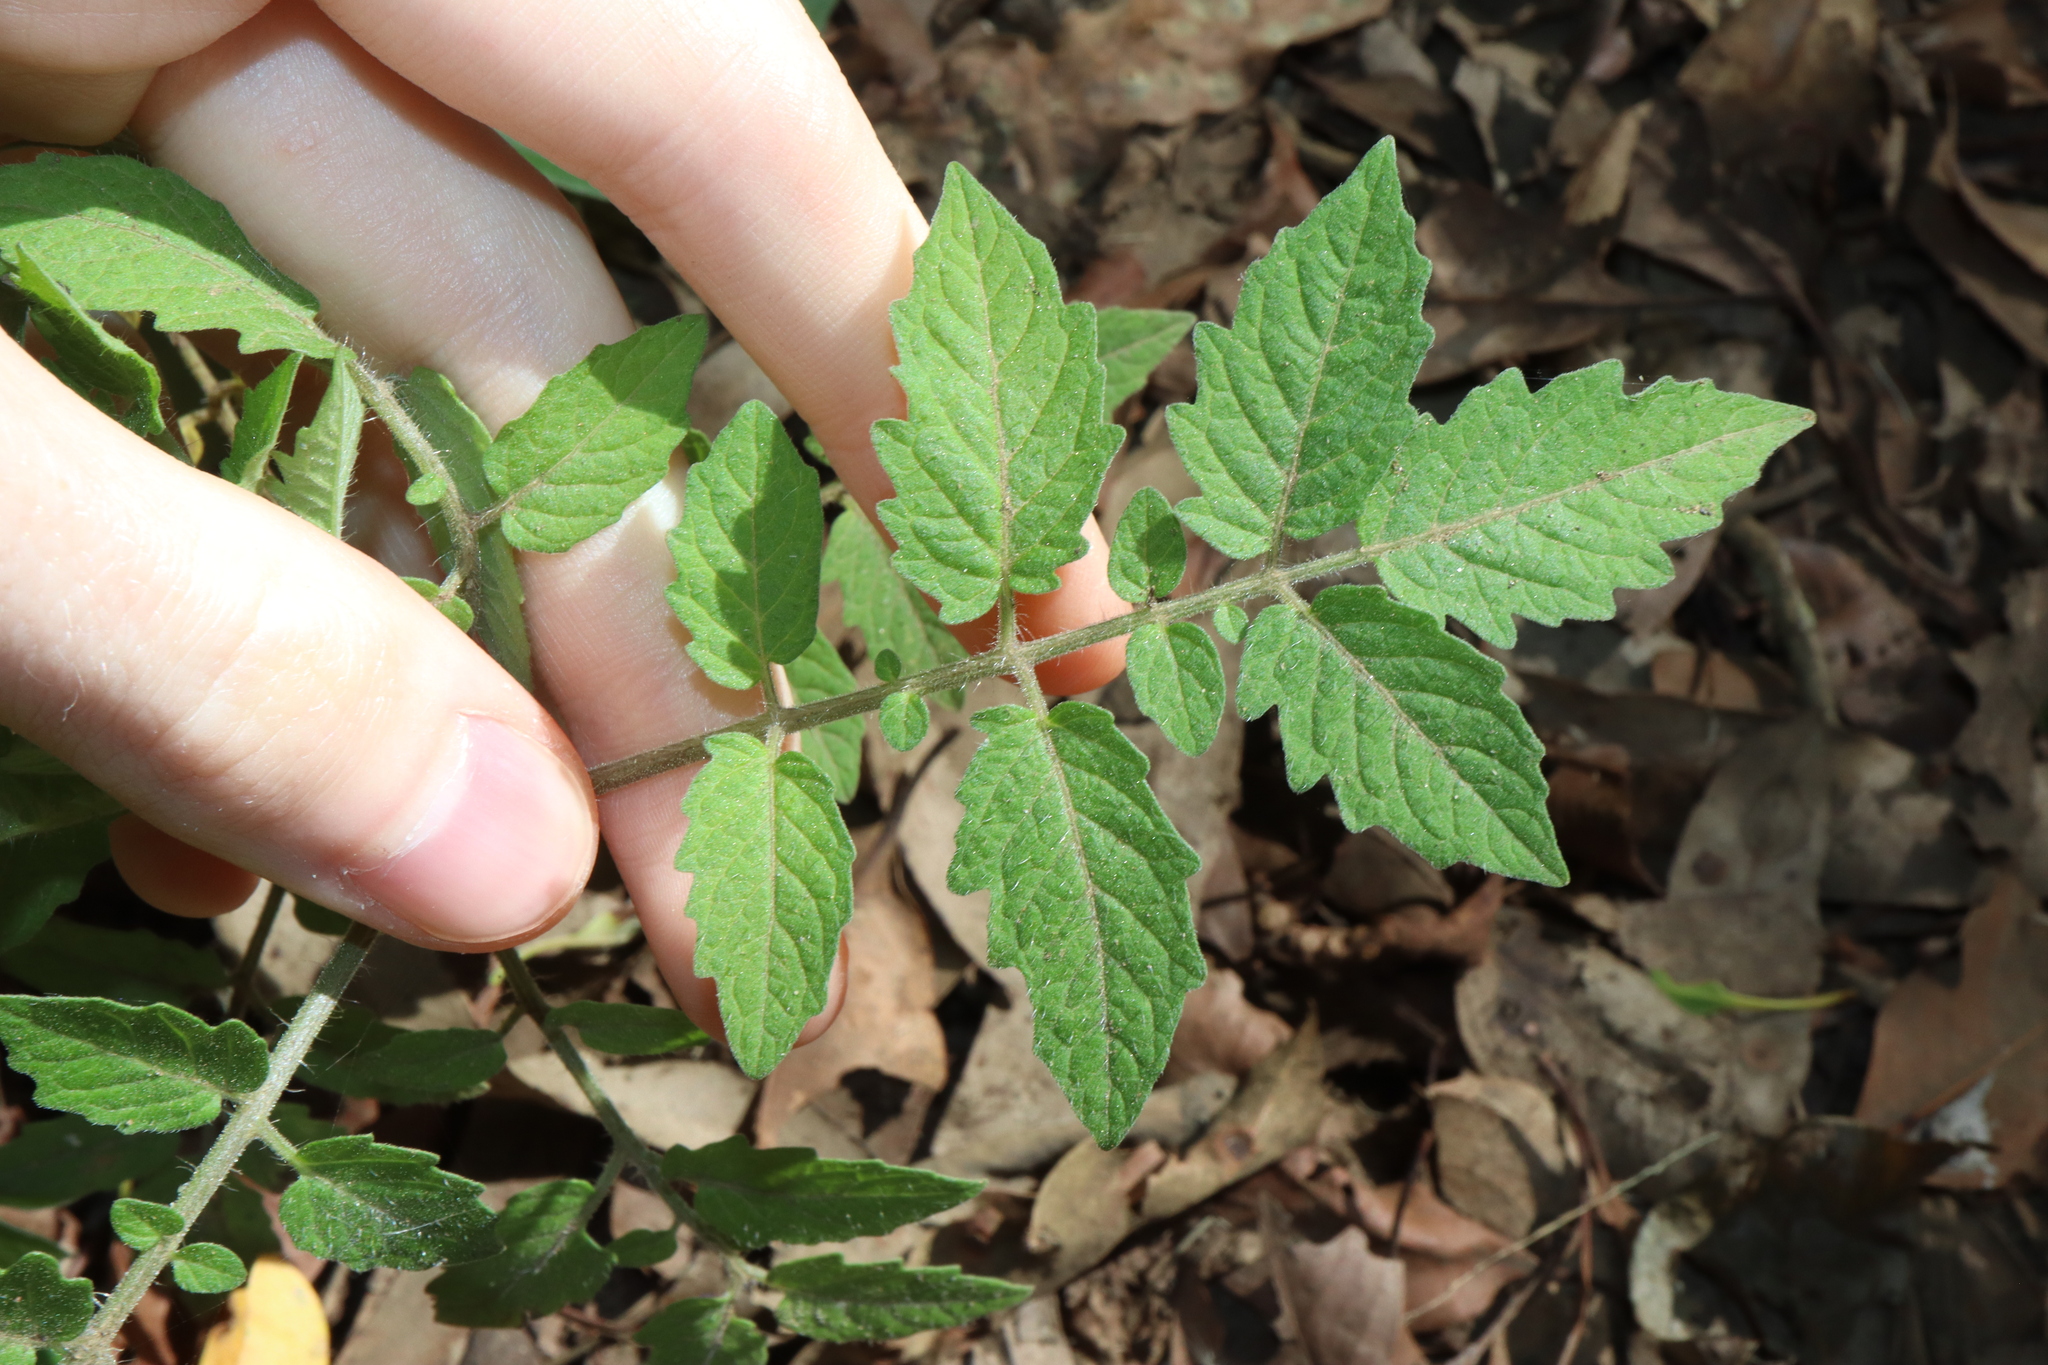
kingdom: Plantae
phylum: Tracheophyta
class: Magnoliopsida
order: Solanales
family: Solanaceae
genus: Solanum
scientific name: Solanum lycopersicum
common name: Garden tomato
